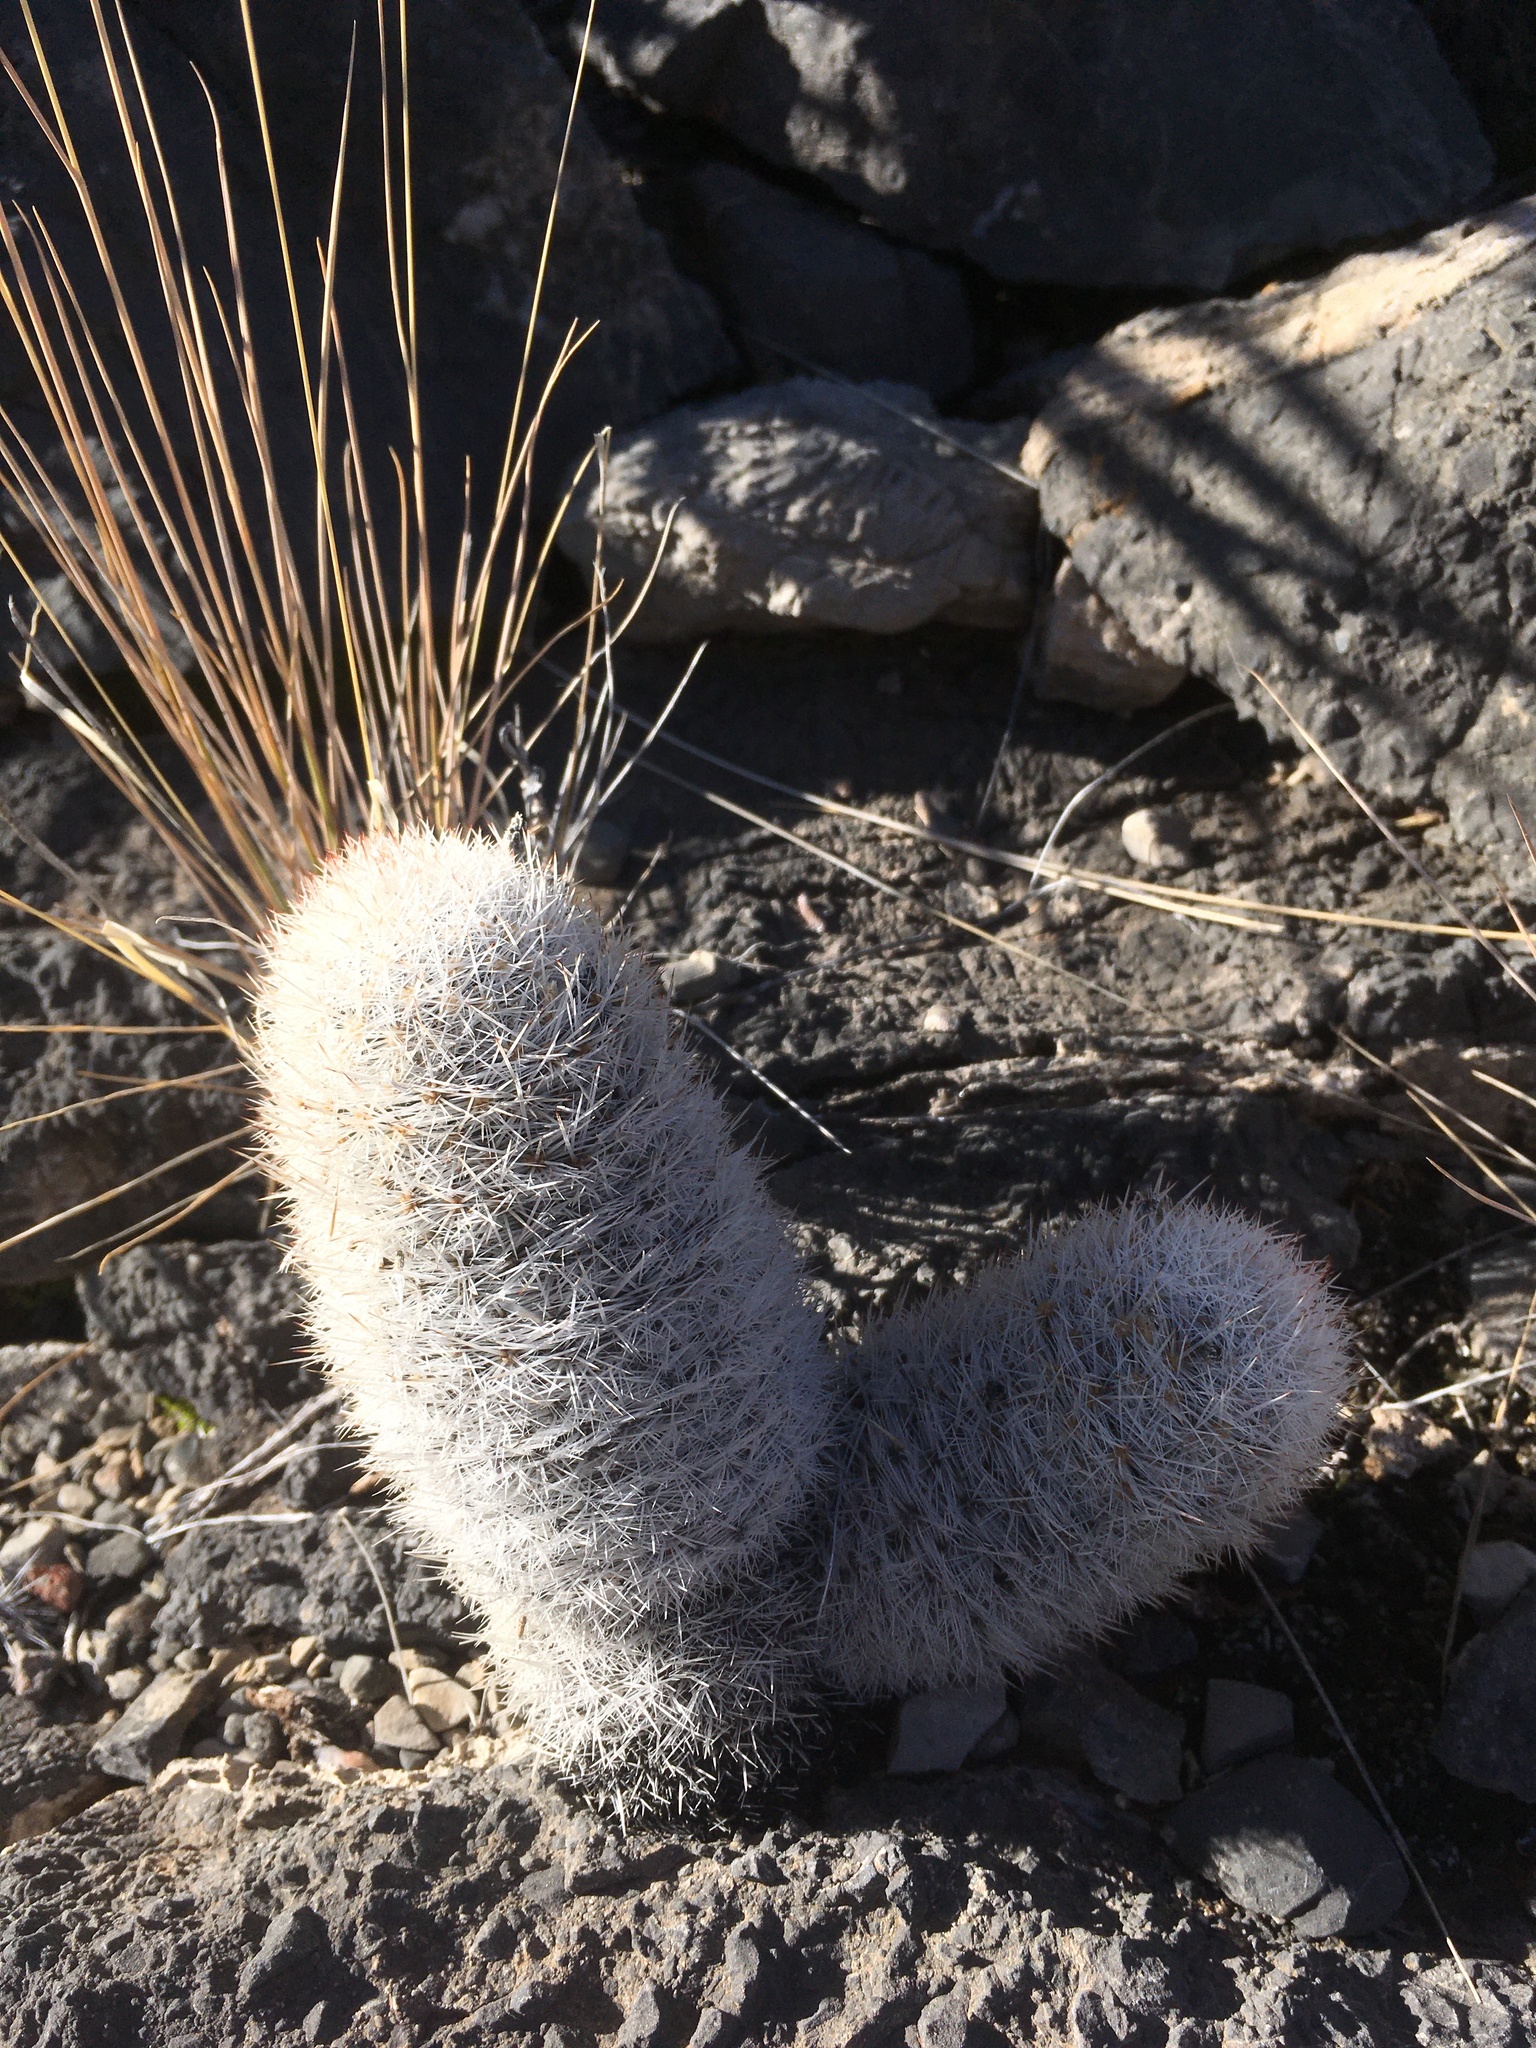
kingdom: Plantae
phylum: Tracheophyta
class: Magnoliopsida
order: Caryophyllales
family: Cactaceae
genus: Pelecyphora
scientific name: Pelecyphora sneedii
